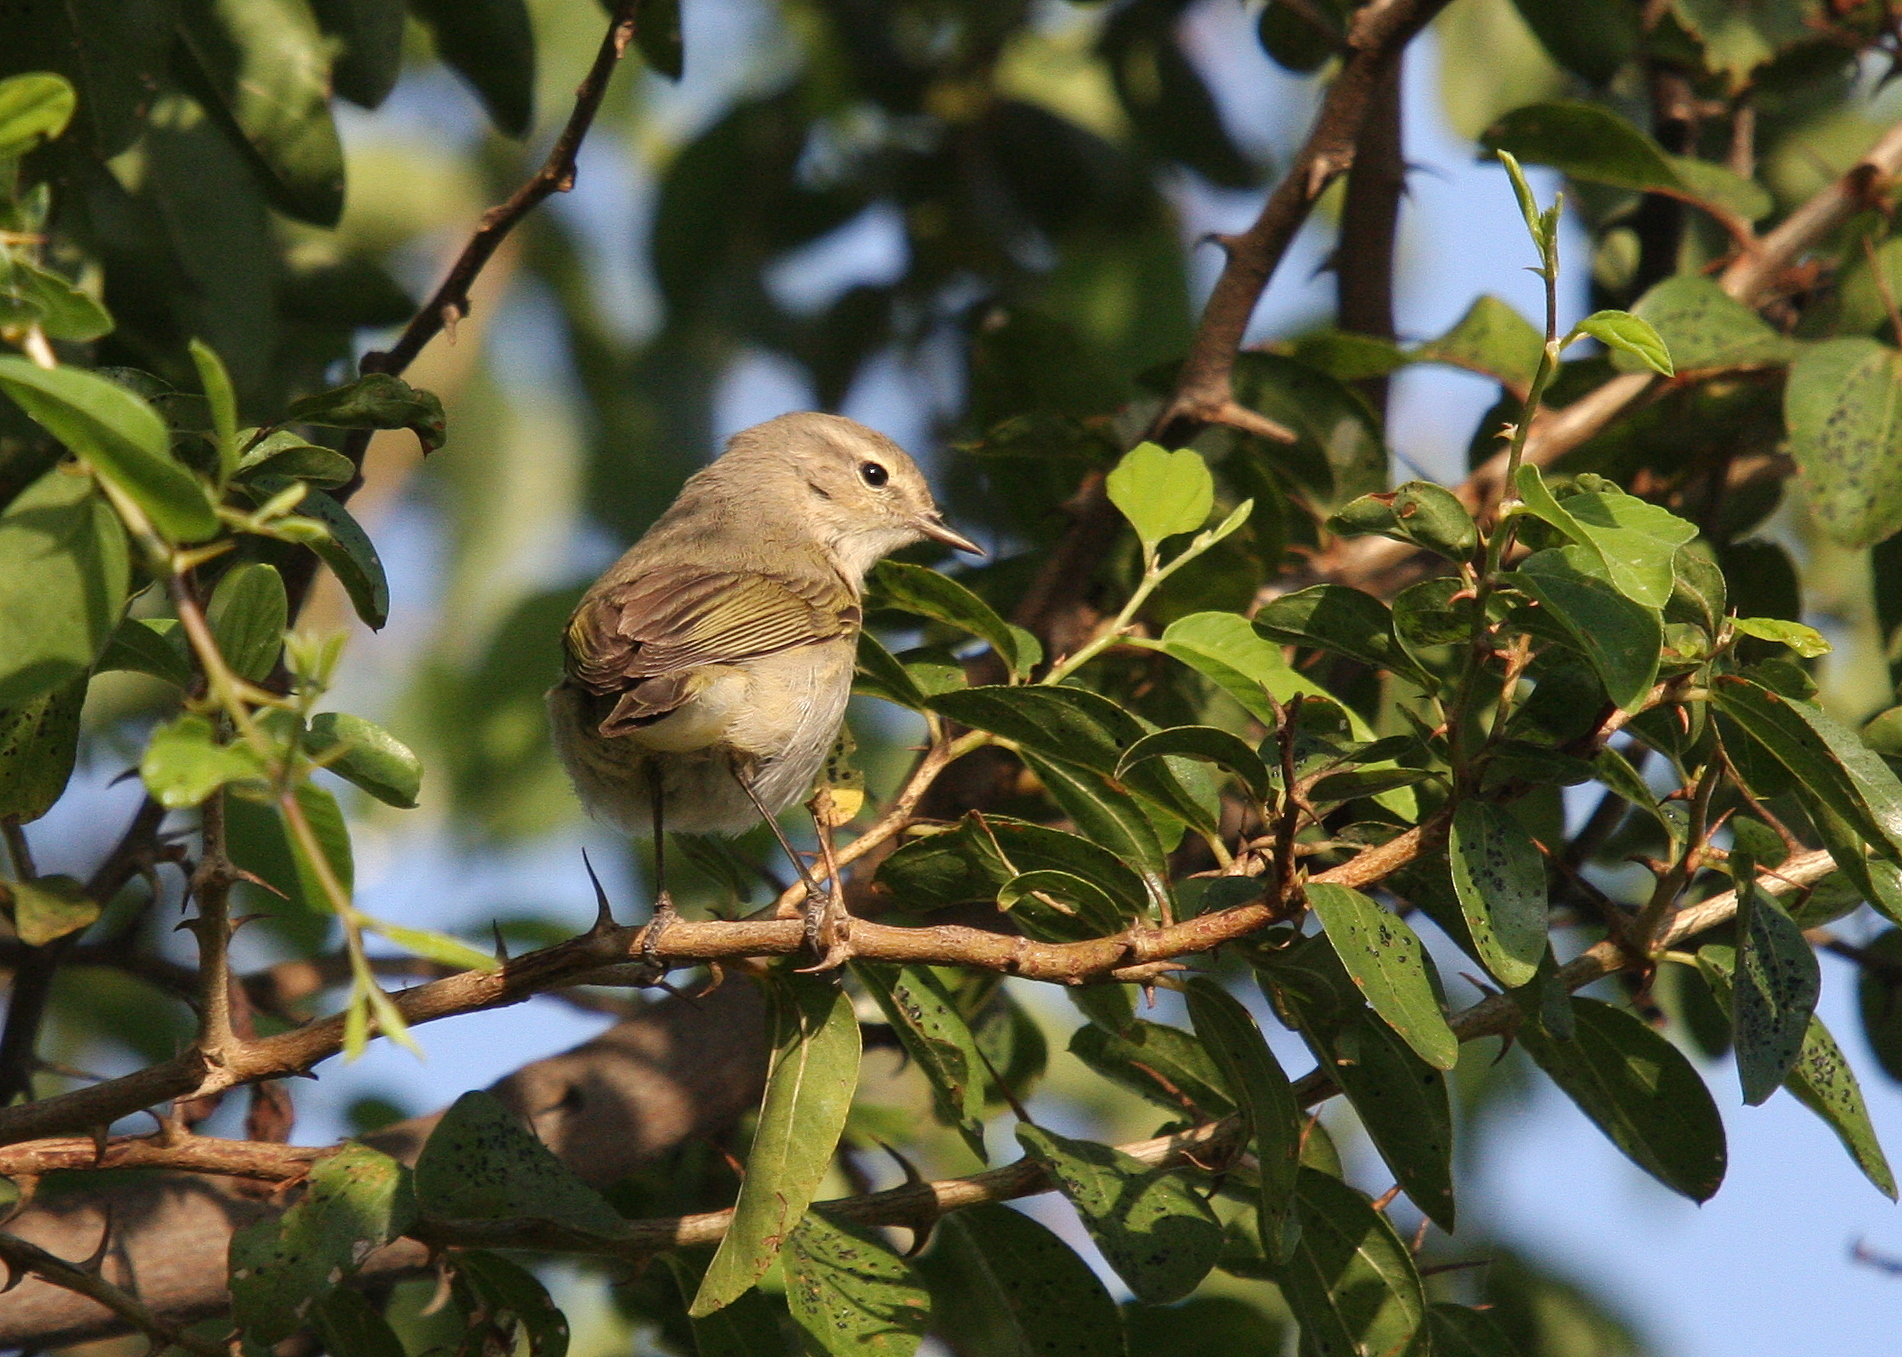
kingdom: Animalia
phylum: Chordata
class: Aves
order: Passeriformes
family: Phylloscopidae
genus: Phylloscopus
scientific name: Phylloscopus collybita
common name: Common chiffchaff
